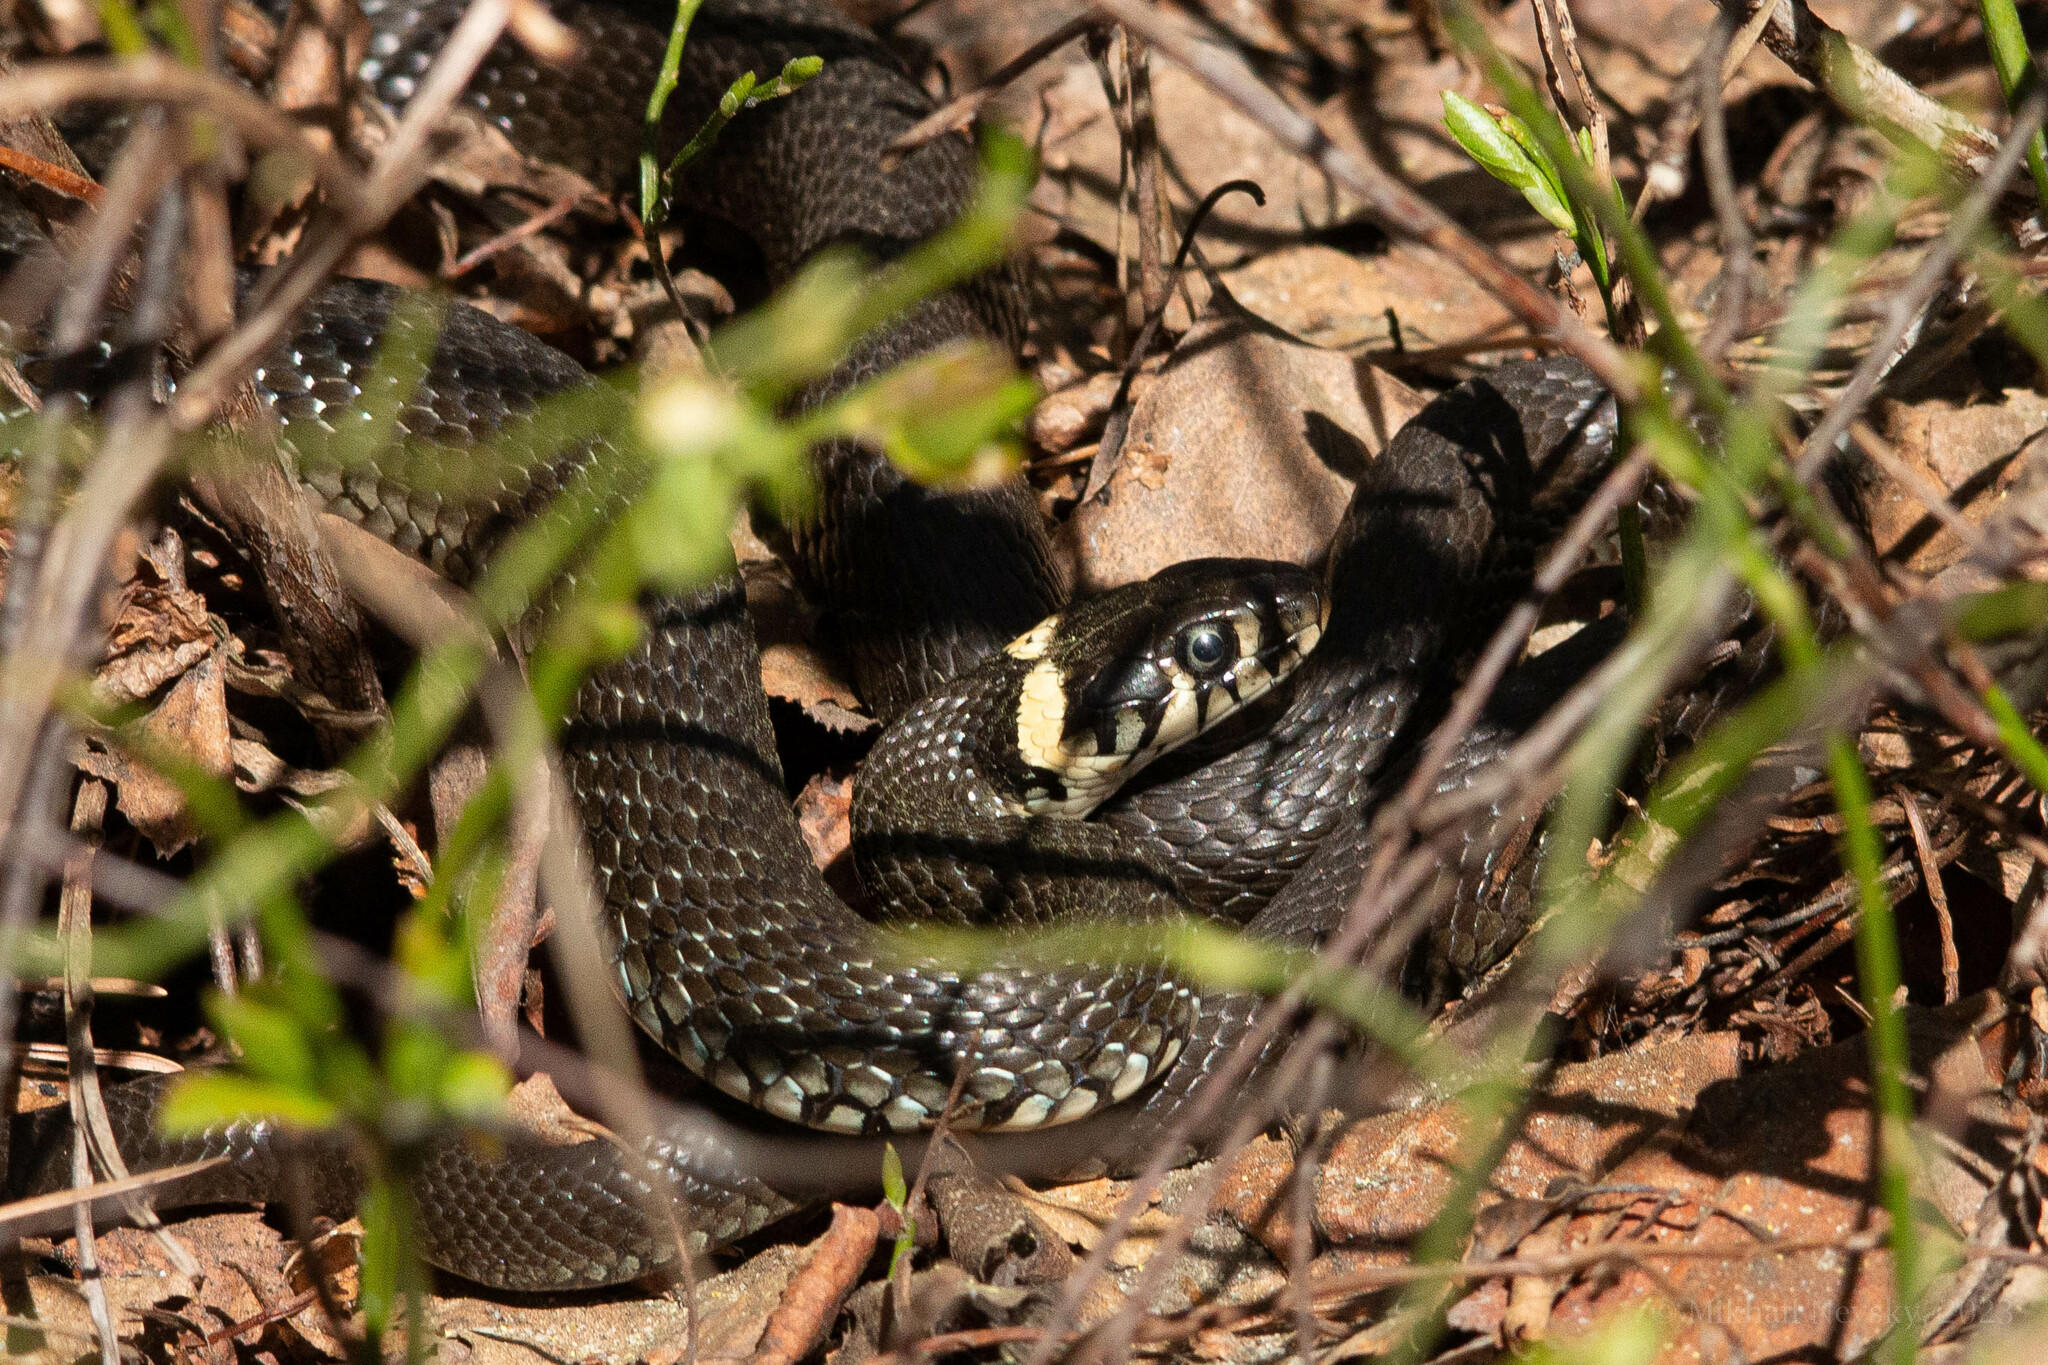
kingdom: Animalia
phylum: Chordata
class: Squamata
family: Colubridae
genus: Natrix
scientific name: Natrix natrix
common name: Grass snake
